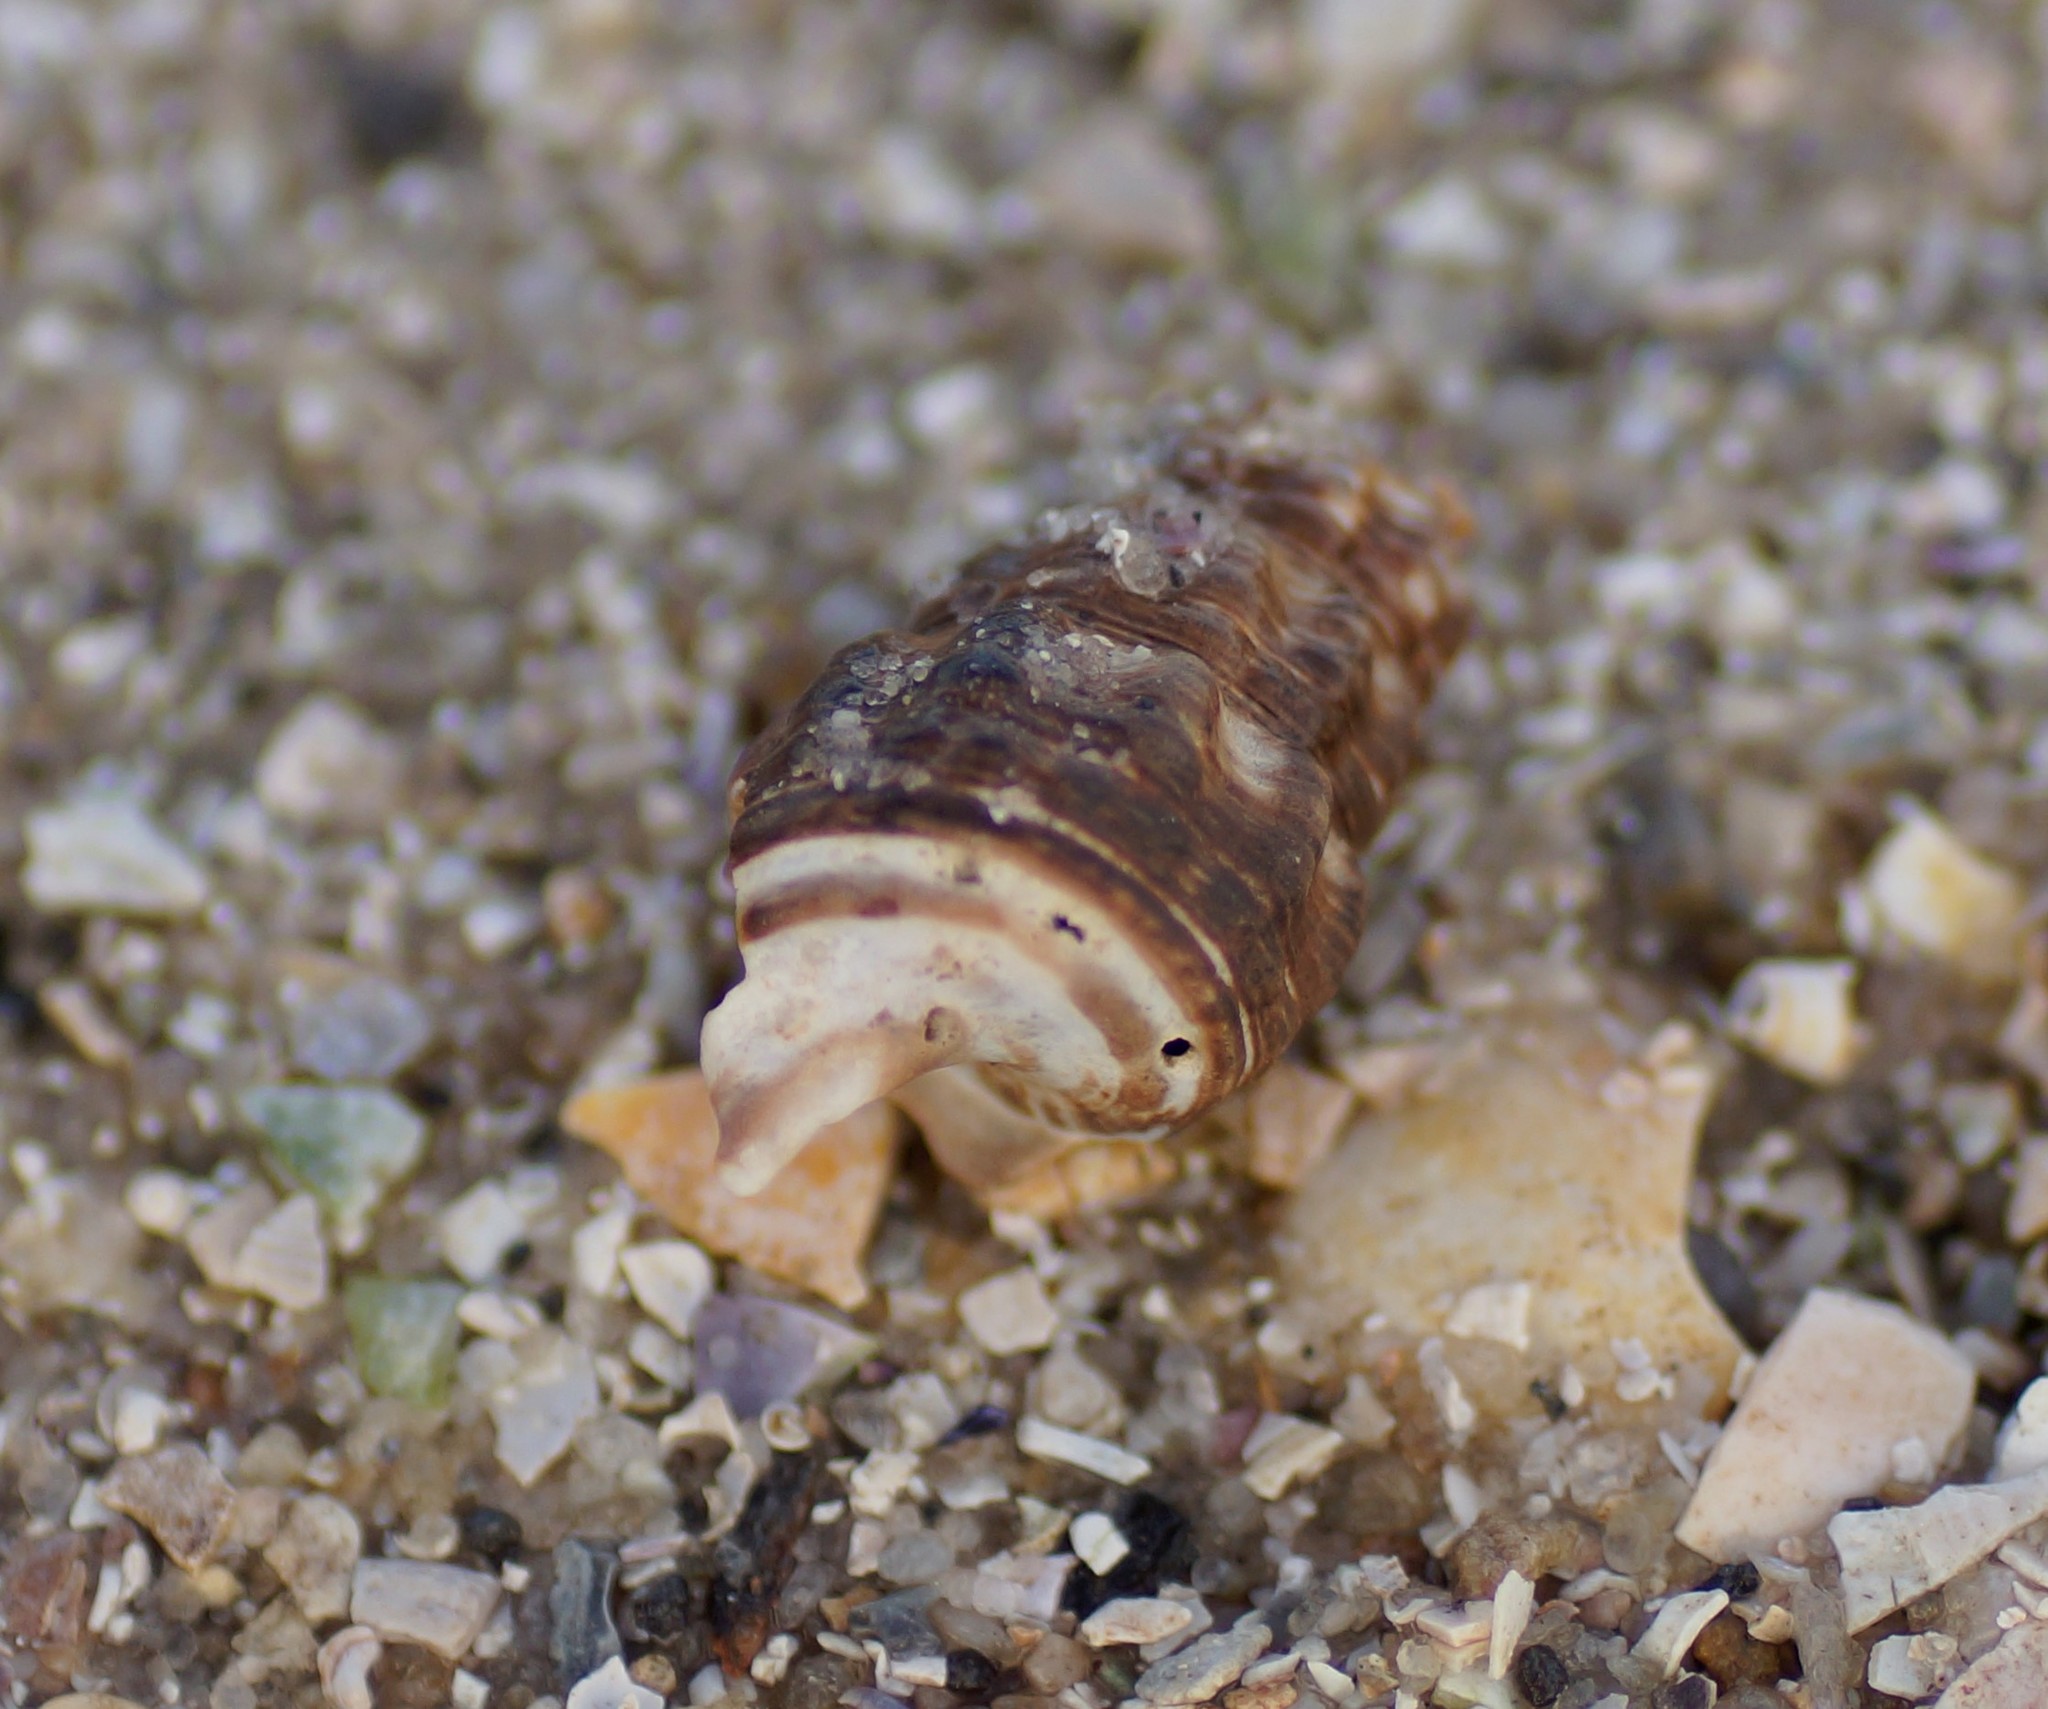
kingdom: Animalia
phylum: Mollusca
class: Gastropoda
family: Batillariidae
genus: Batillaria
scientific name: Batillaria australis
